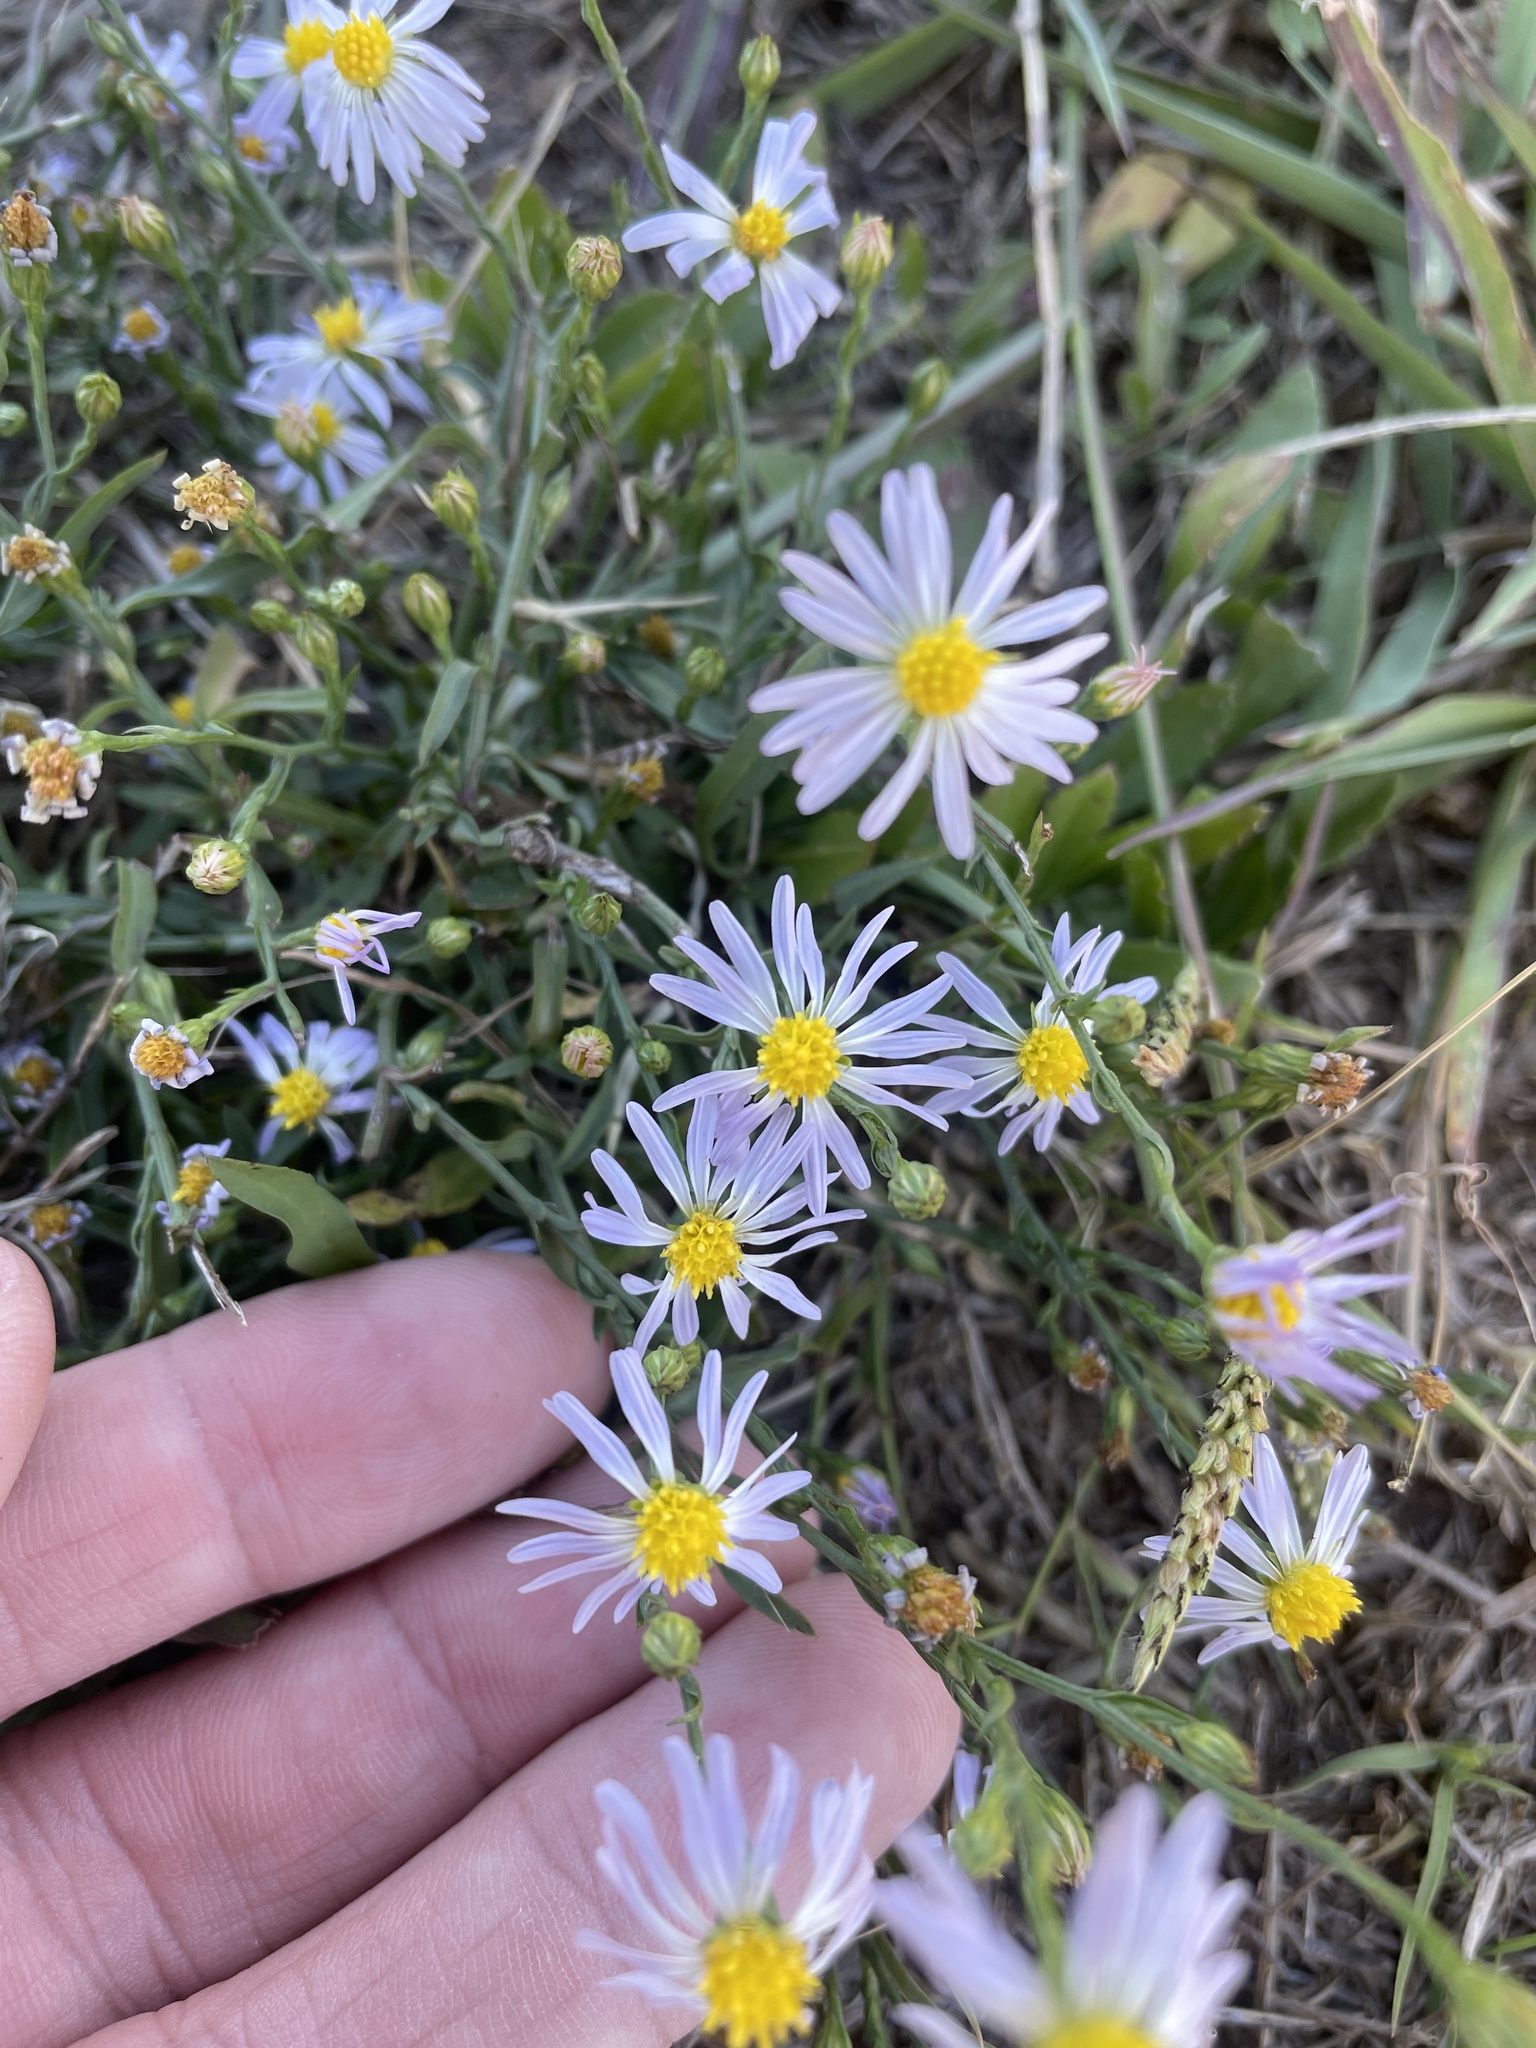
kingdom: Plantae
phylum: Tracheophyta
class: Magnoliopsida
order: Asterales
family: Asteraceae
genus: Symphyotrichum
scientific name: Symphyotrichum divaricatum
